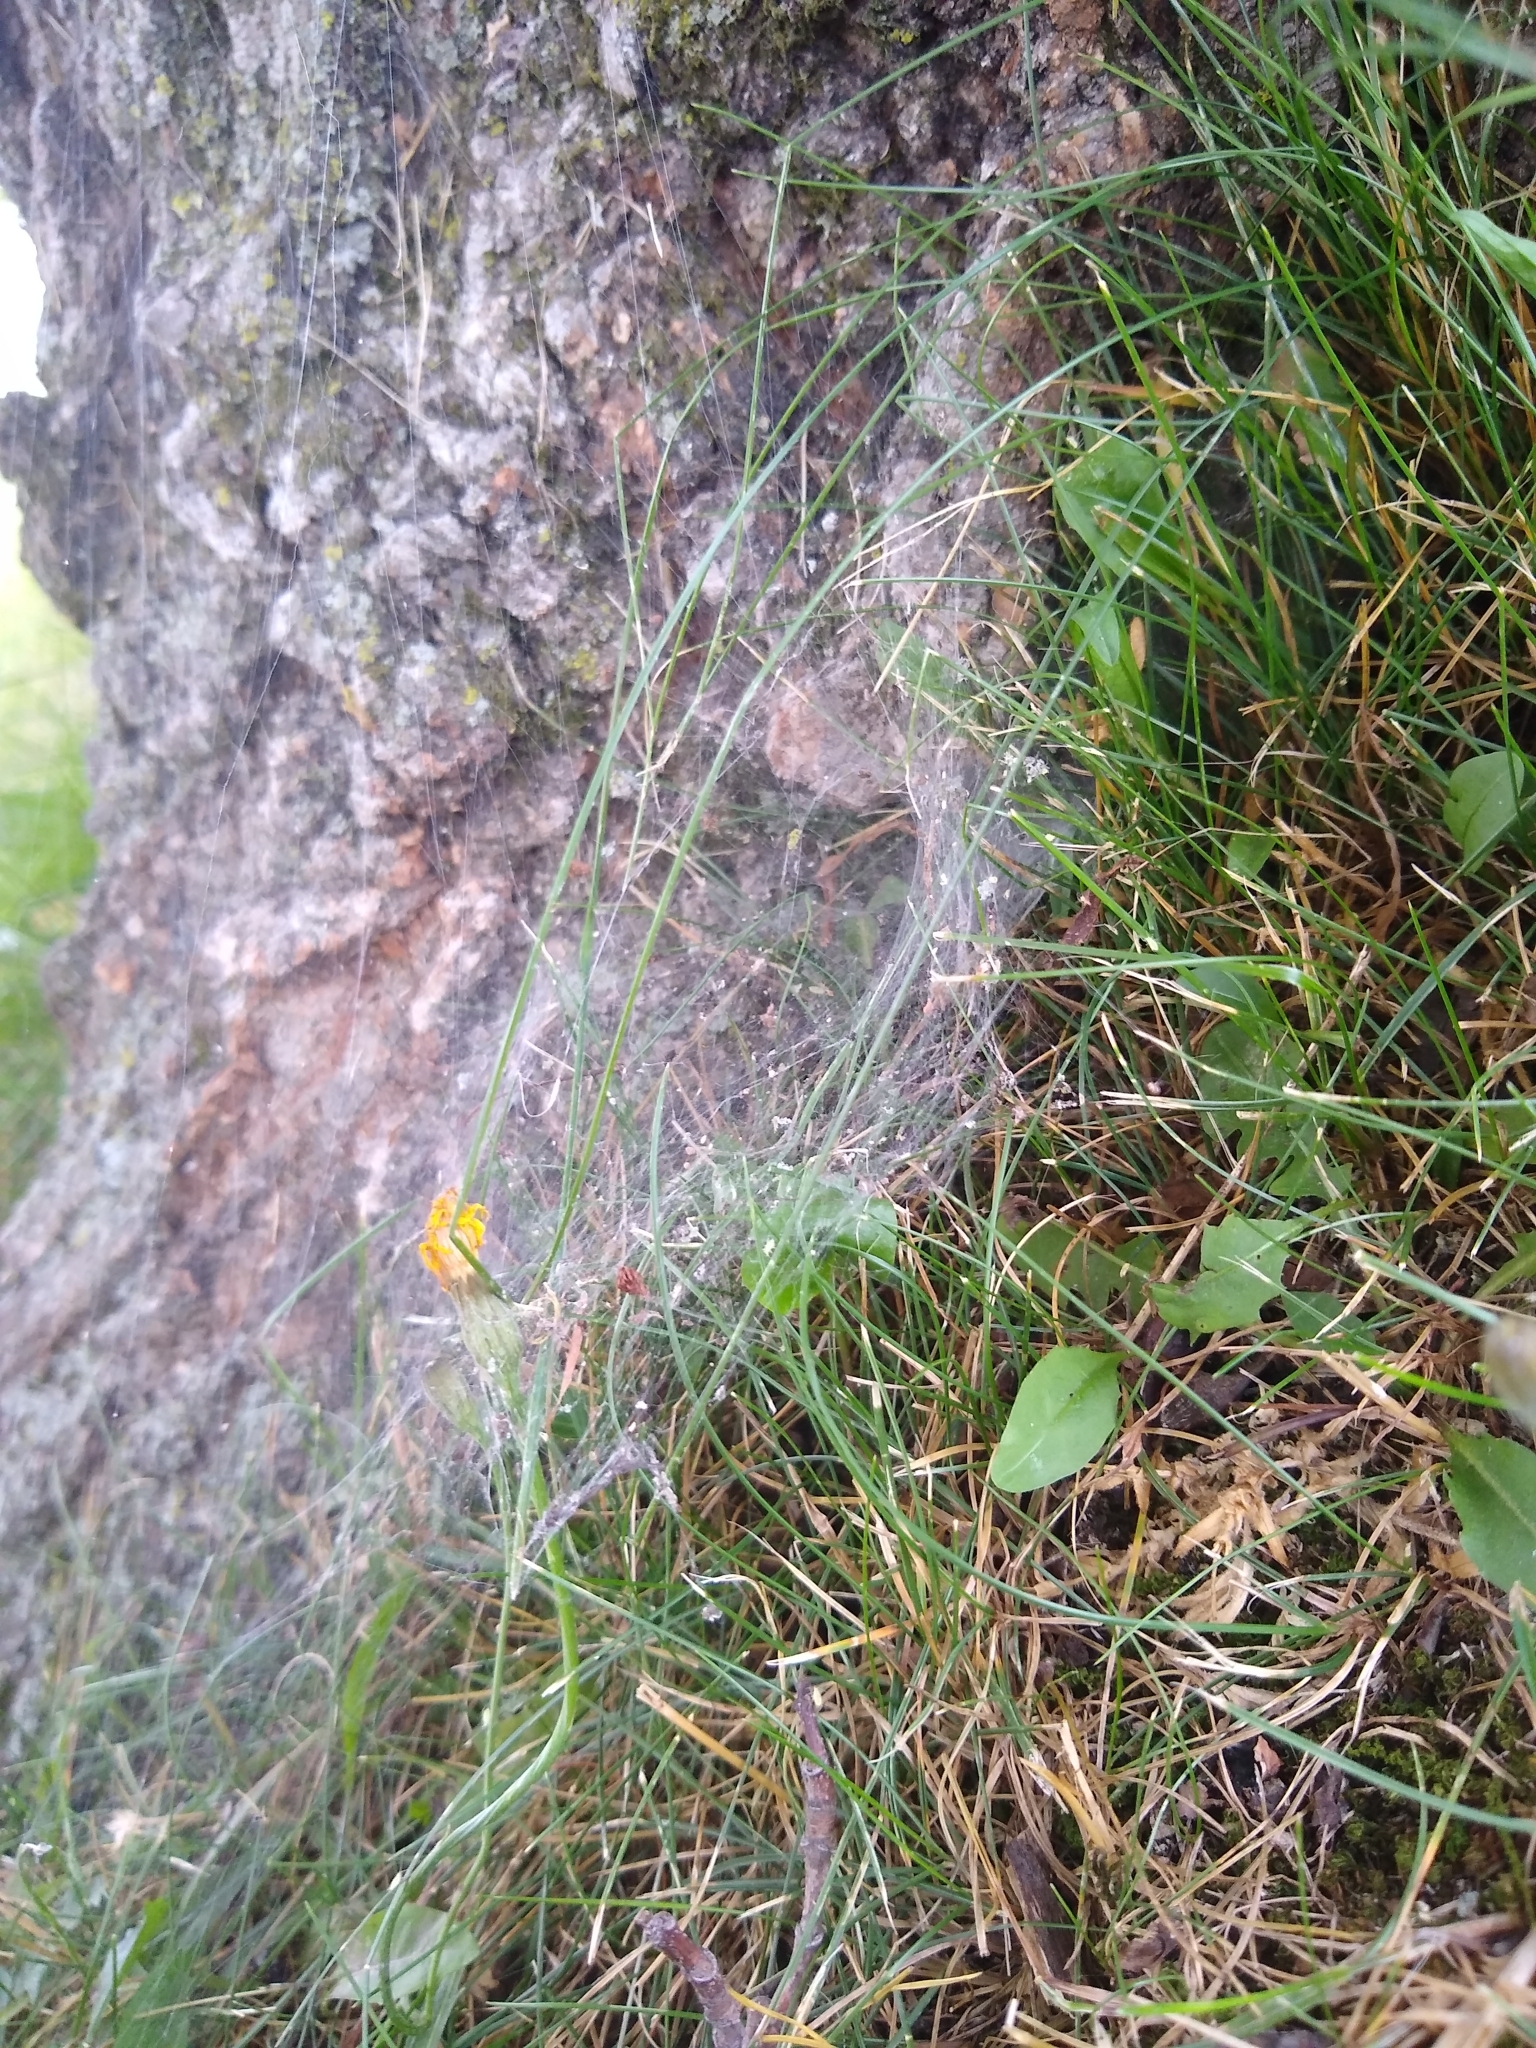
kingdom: Animalia
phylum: Arthropoda
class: Arachnida
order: Araneae
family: Agelenidae
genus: Agelenopsis
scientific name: Agelenopsis
